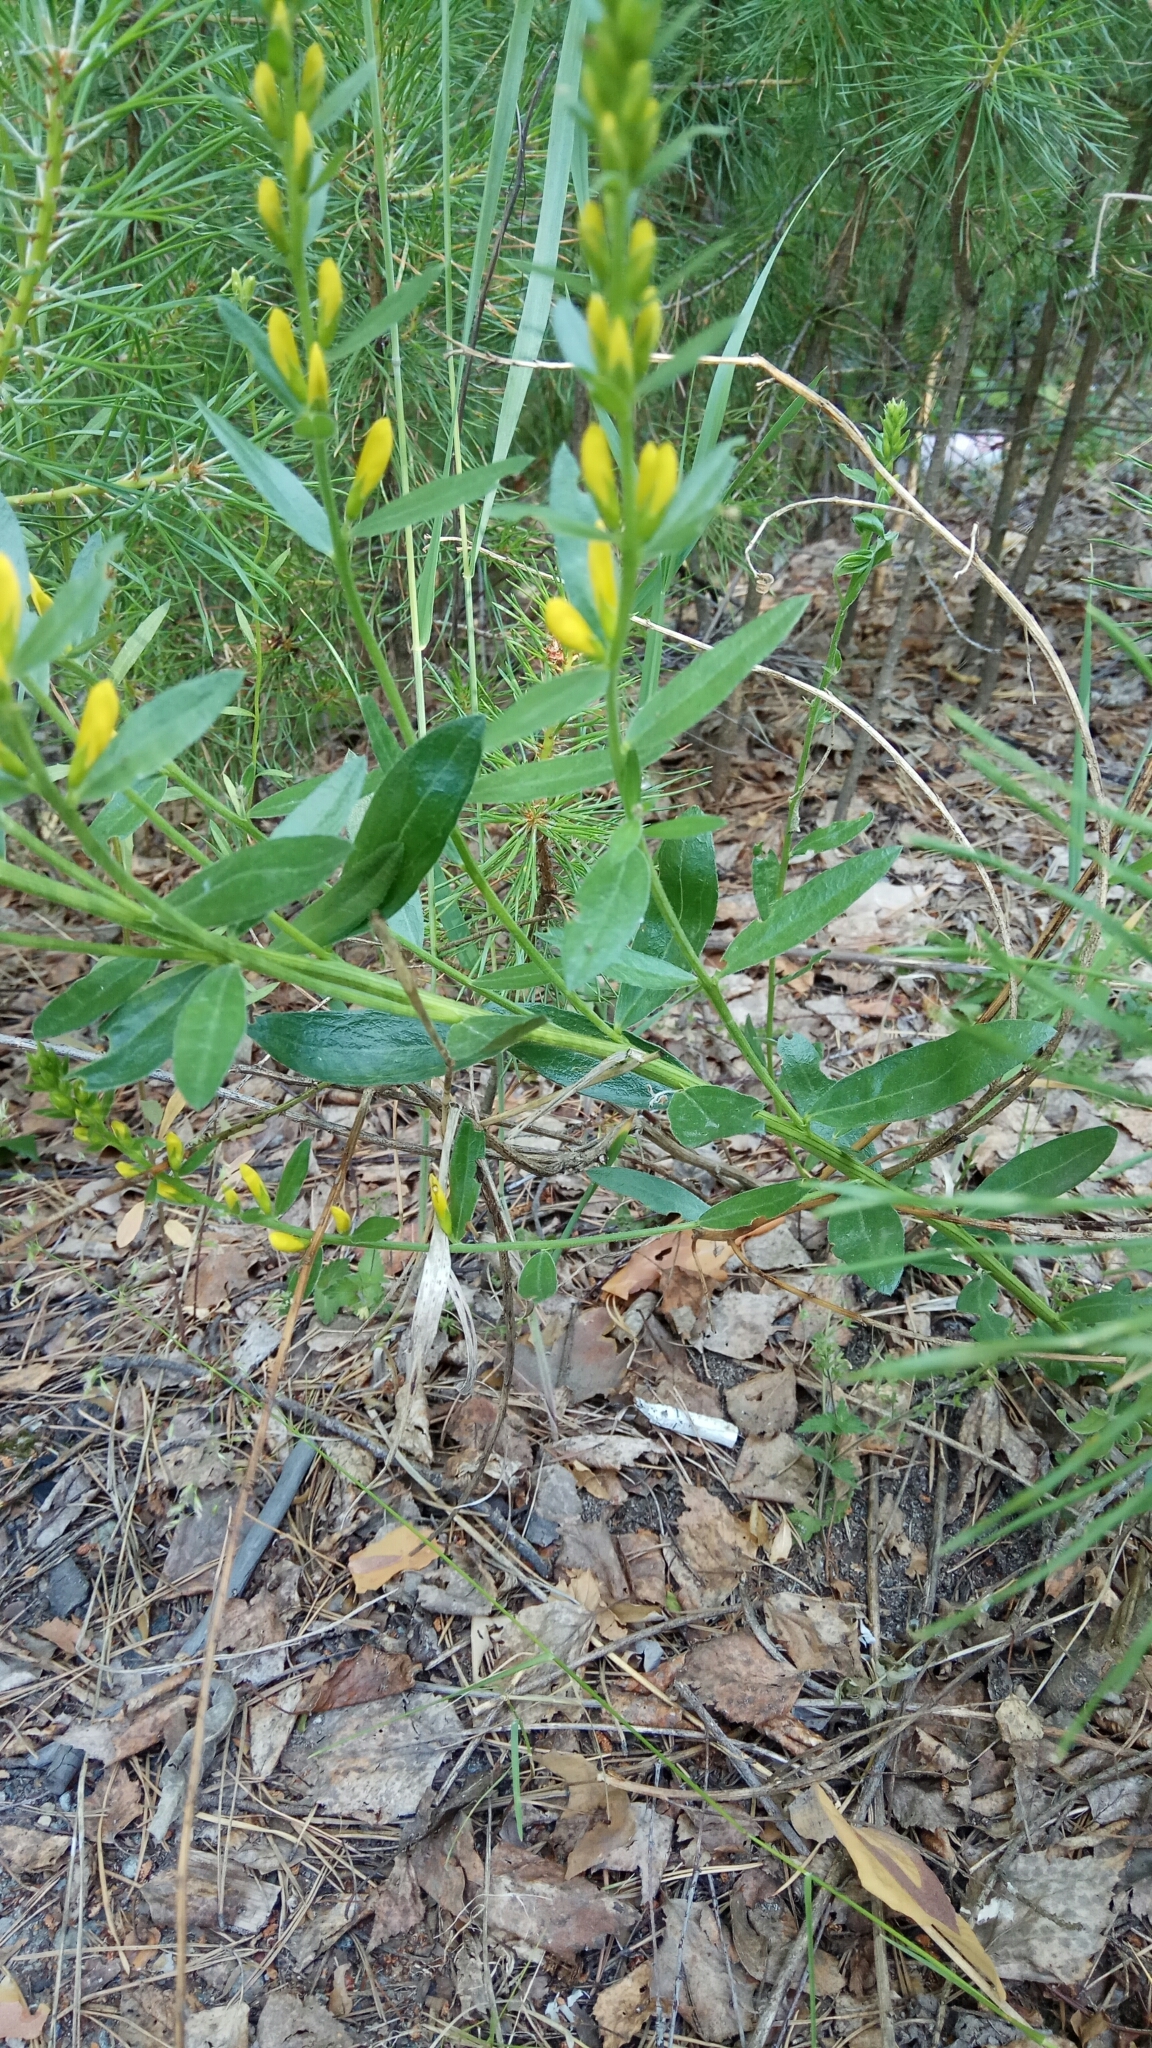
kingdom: Plantae
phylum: Tracheophyta
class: Magnoliopsida
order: Fabales
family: Fabaceae
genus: Genista
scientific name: Genista tinctoria
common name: Dyer's greenweed
